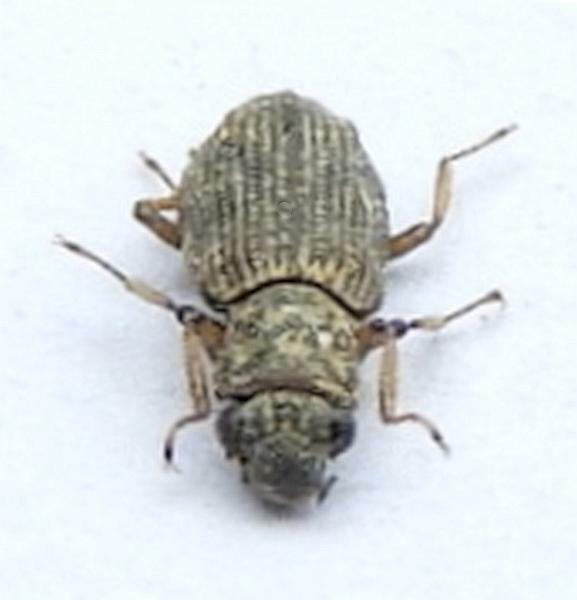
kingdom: Animalia
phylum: Arthropoda
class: Insecta
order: Coleoptera
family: Hydrochidae
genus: Hydrochus
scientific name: Hydrochus
